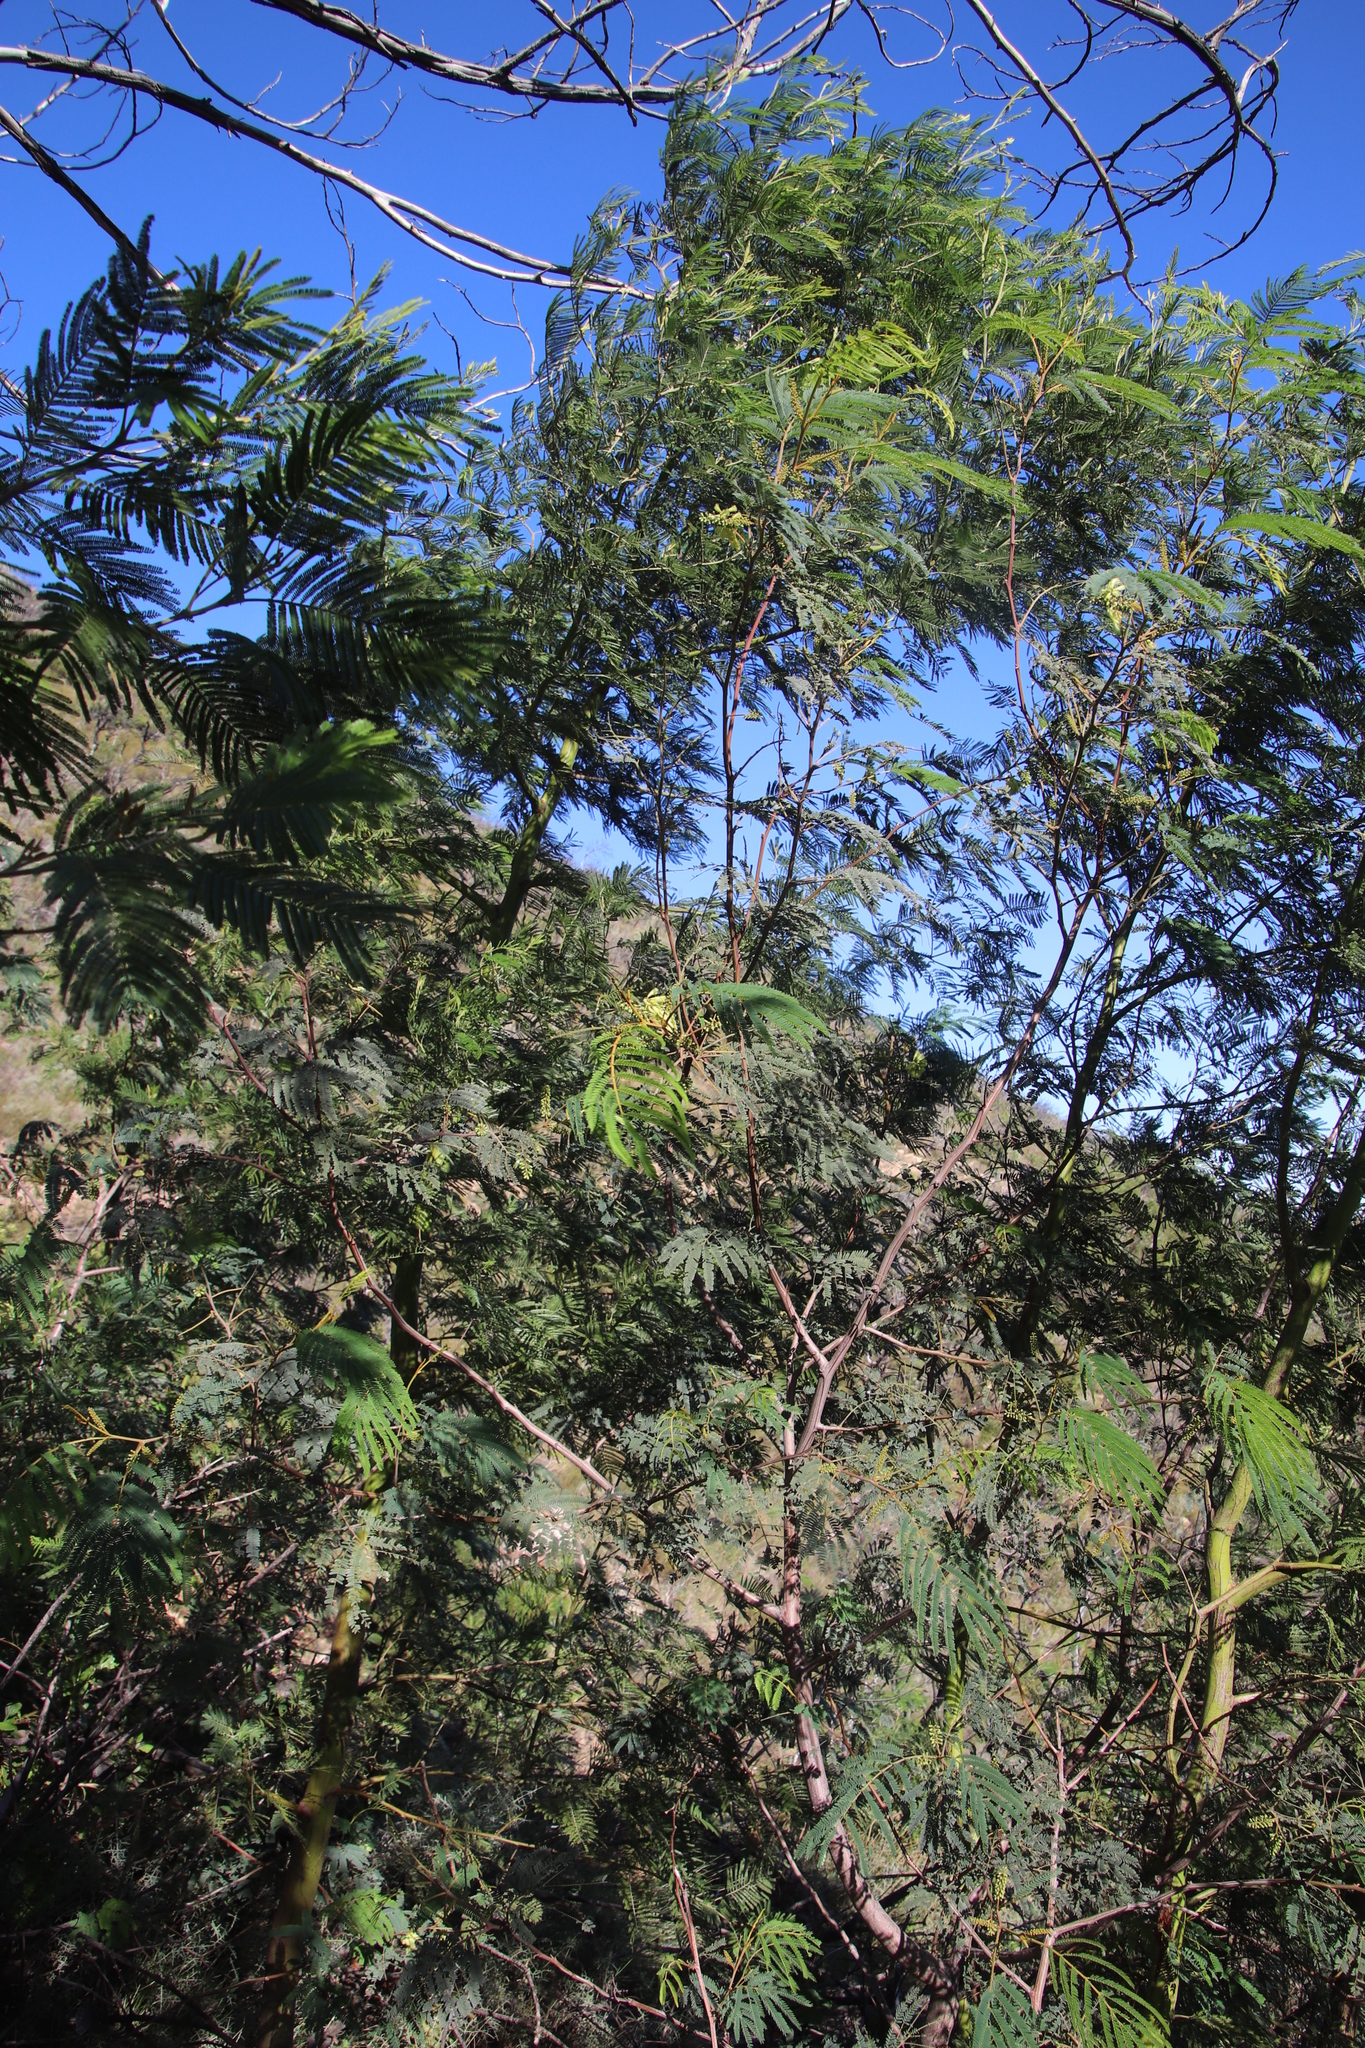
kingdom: Plantae
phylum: Tracheophyta
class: Magnoliopsida
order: Fabales
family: Fabaceae
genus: Paraserianthes
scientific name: Paraserianthes lophantha
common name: Plume albizia
